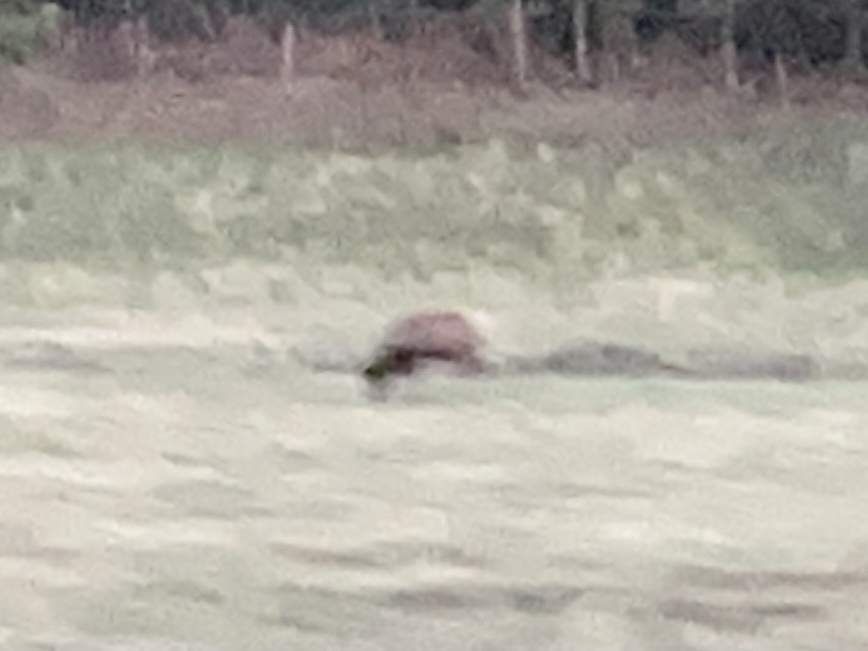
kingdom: Animalia
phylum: Chordata
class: Mammalia
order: Artiodactyla
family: Cervidae
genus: Cervus
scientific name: Cervus elaphus
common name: Red deer
